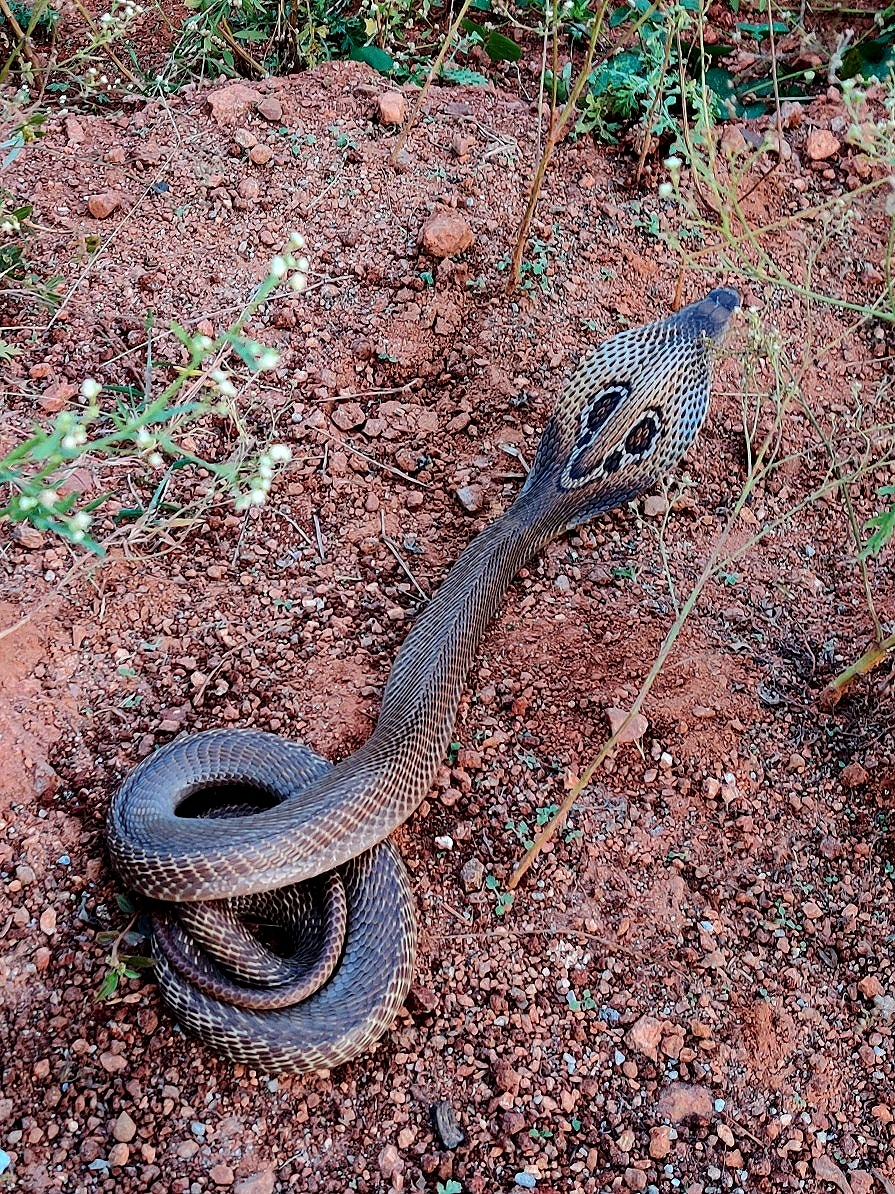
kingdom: Animalia
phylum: Chordata
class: Squamata
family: Elapidae
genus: Naja
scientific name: Naja naja
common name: Indian cobra
